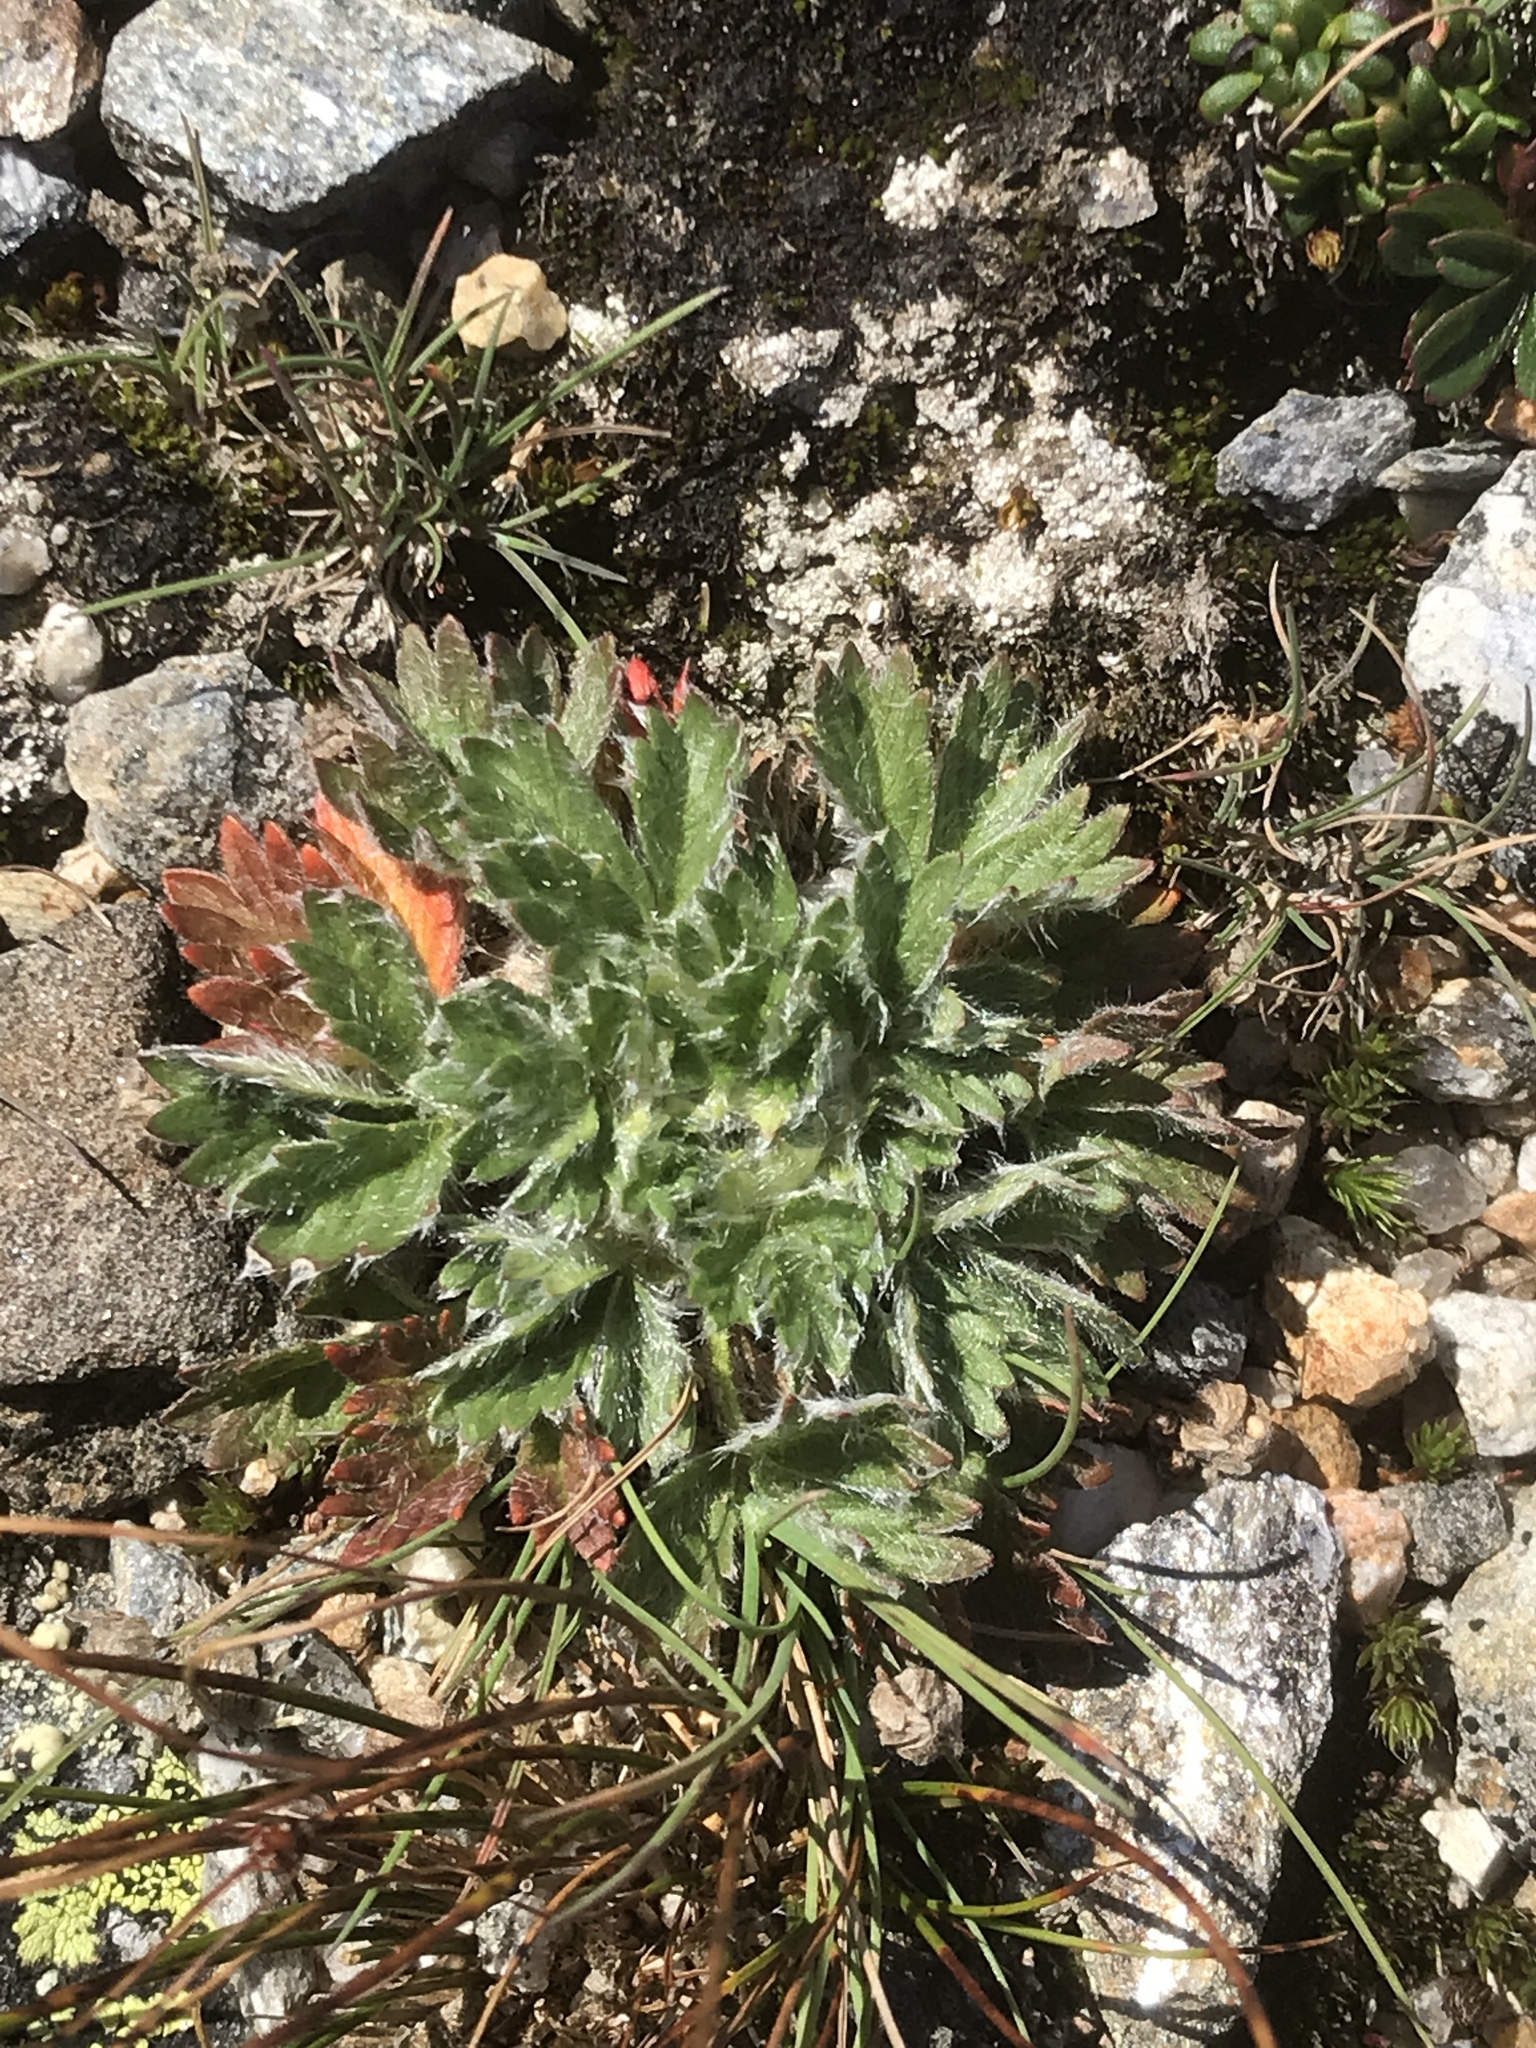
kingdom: Plantae
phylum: Tracheophyta
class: Magnoliopsida
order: Rosales
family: Rosaceae
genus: Potentilla
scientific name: Potentilla robbinsiana
